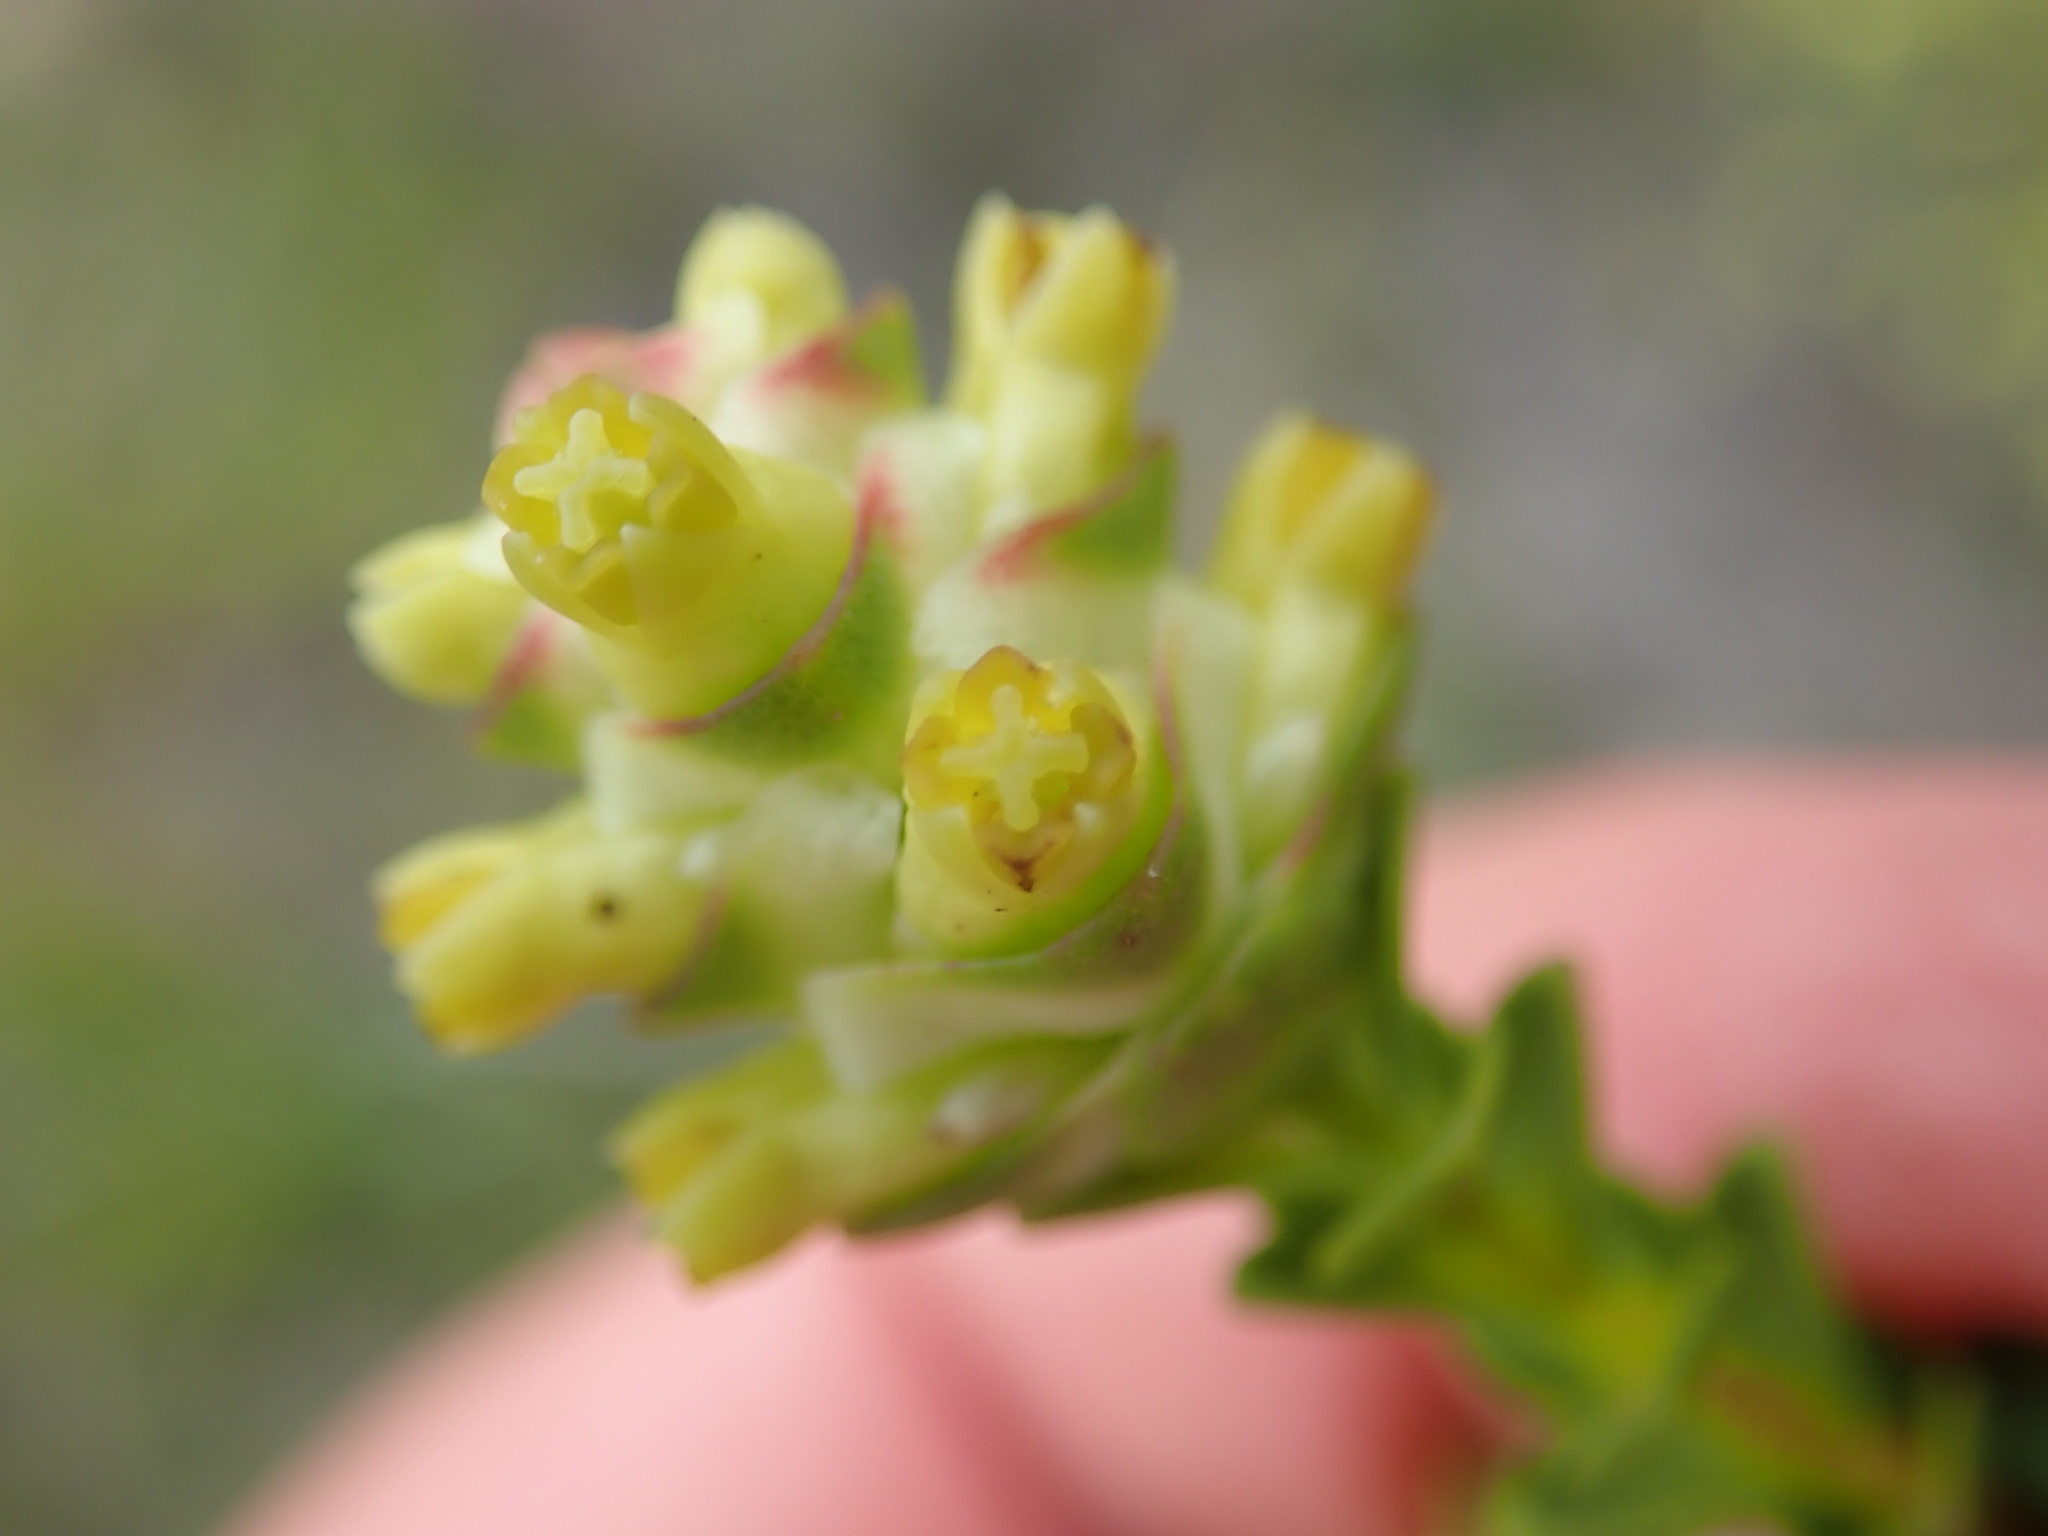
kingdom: Plantae
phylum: Tracheophyta
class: Magnoliopsida
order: Myrtales
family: Penaeaceae
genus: Penaea
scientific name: Penaea cneorum
